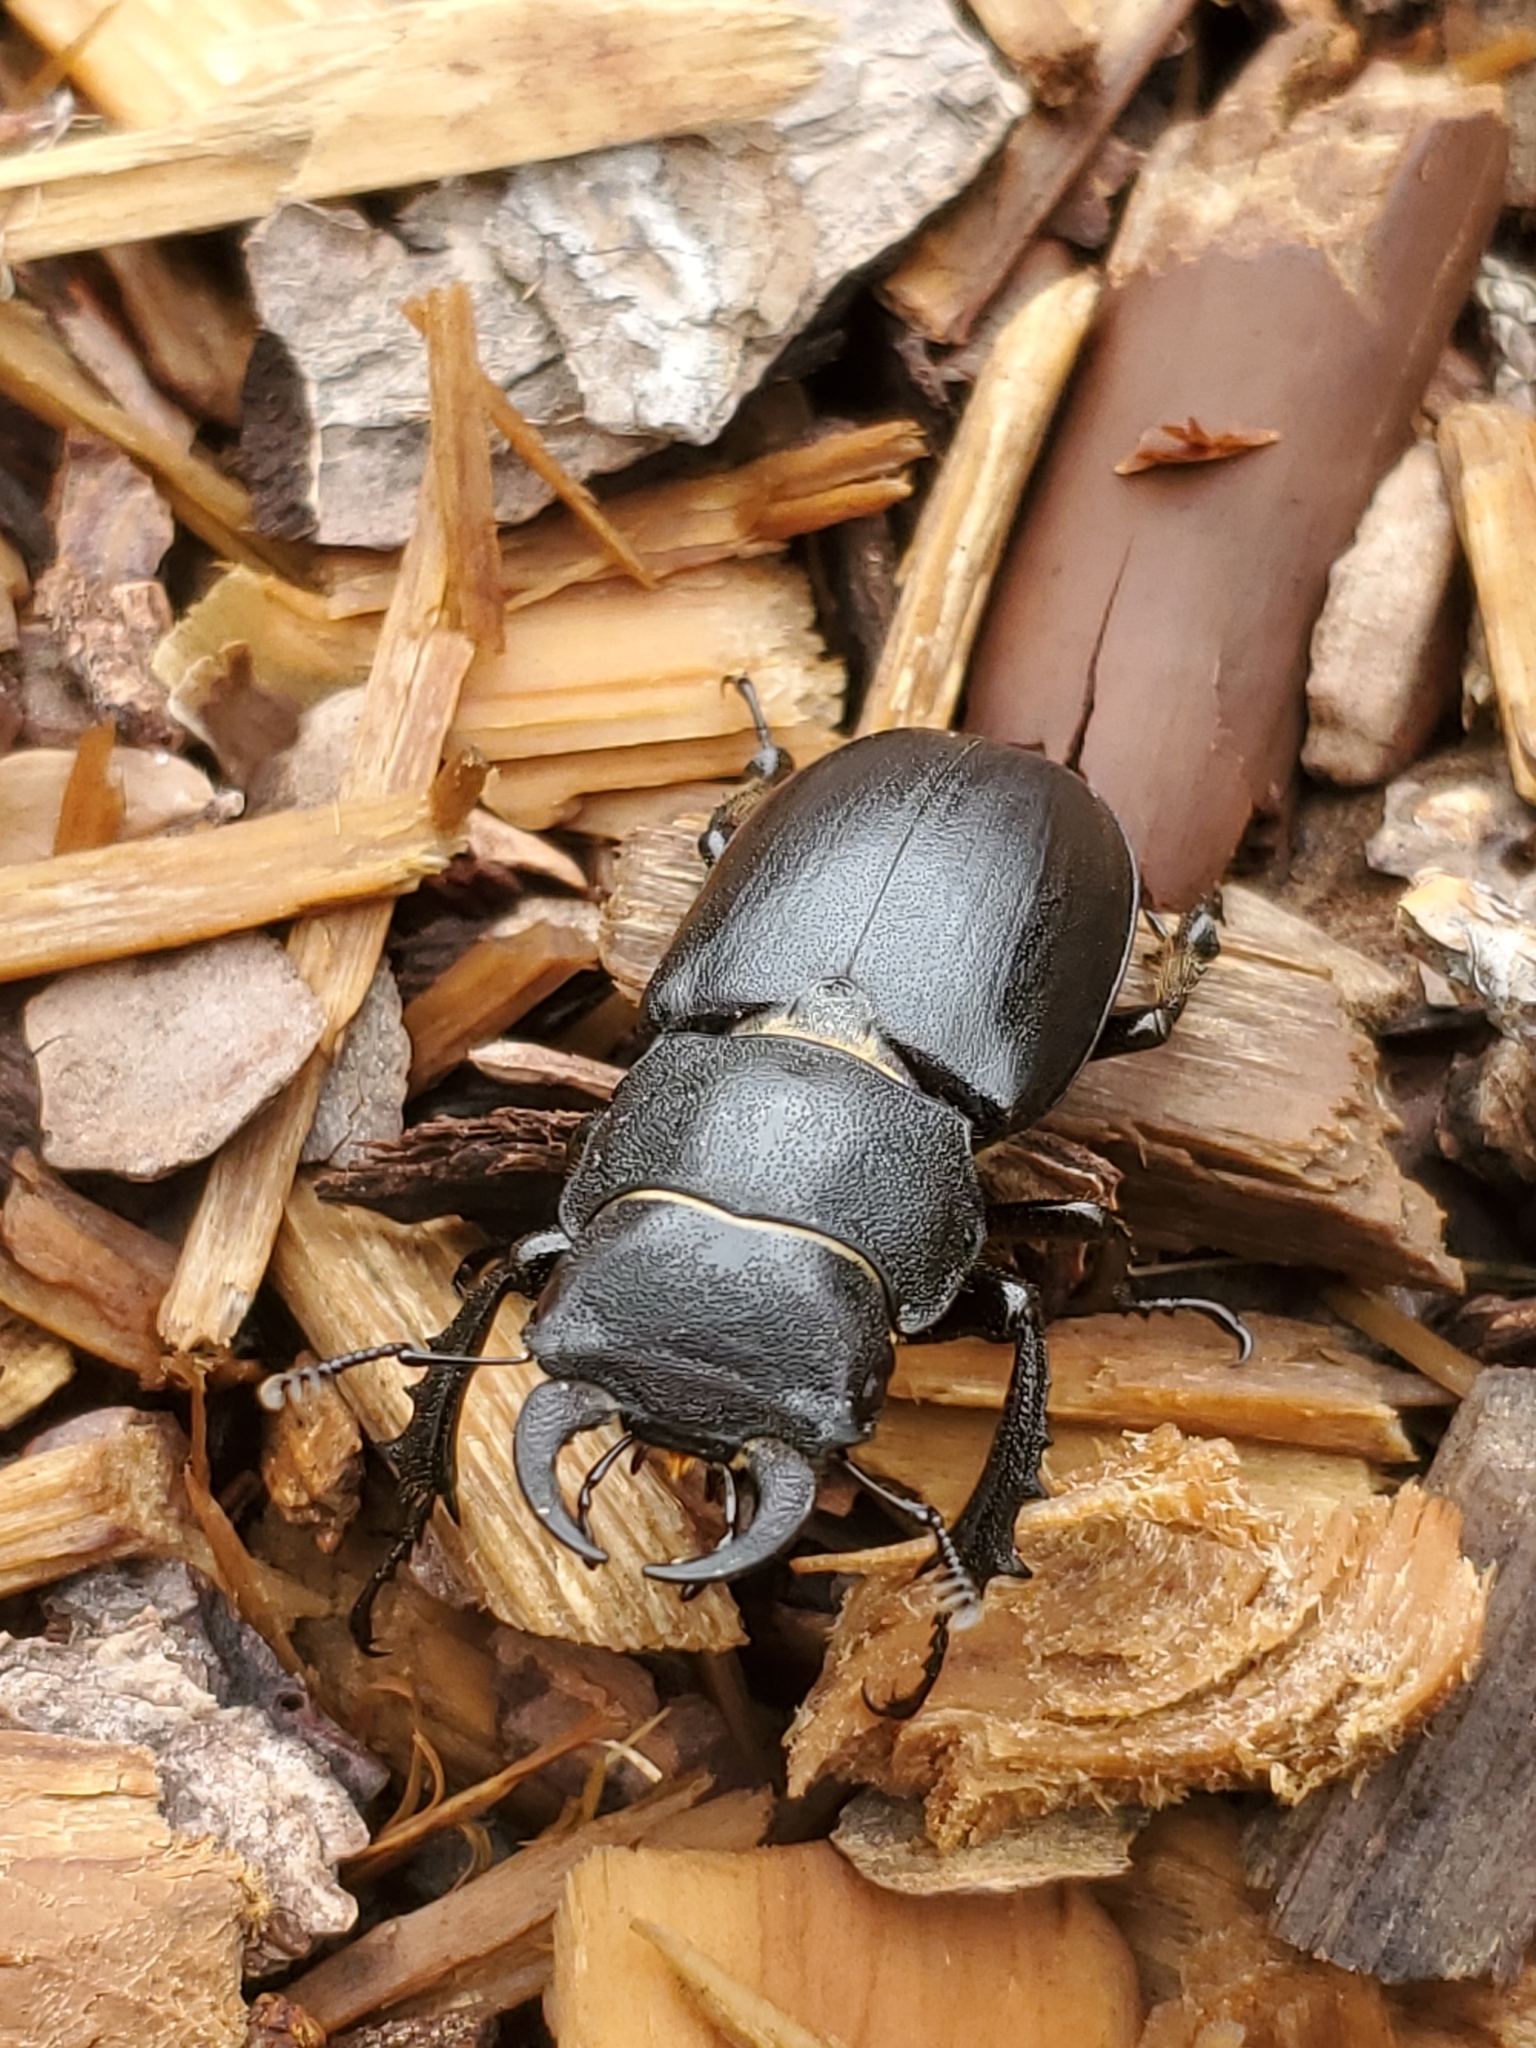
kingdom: Animalia
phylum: Arthropoda
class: Insecta
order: Coleoptera
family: Lucanidae
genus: Lucanus
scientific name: Lucanus mazama
